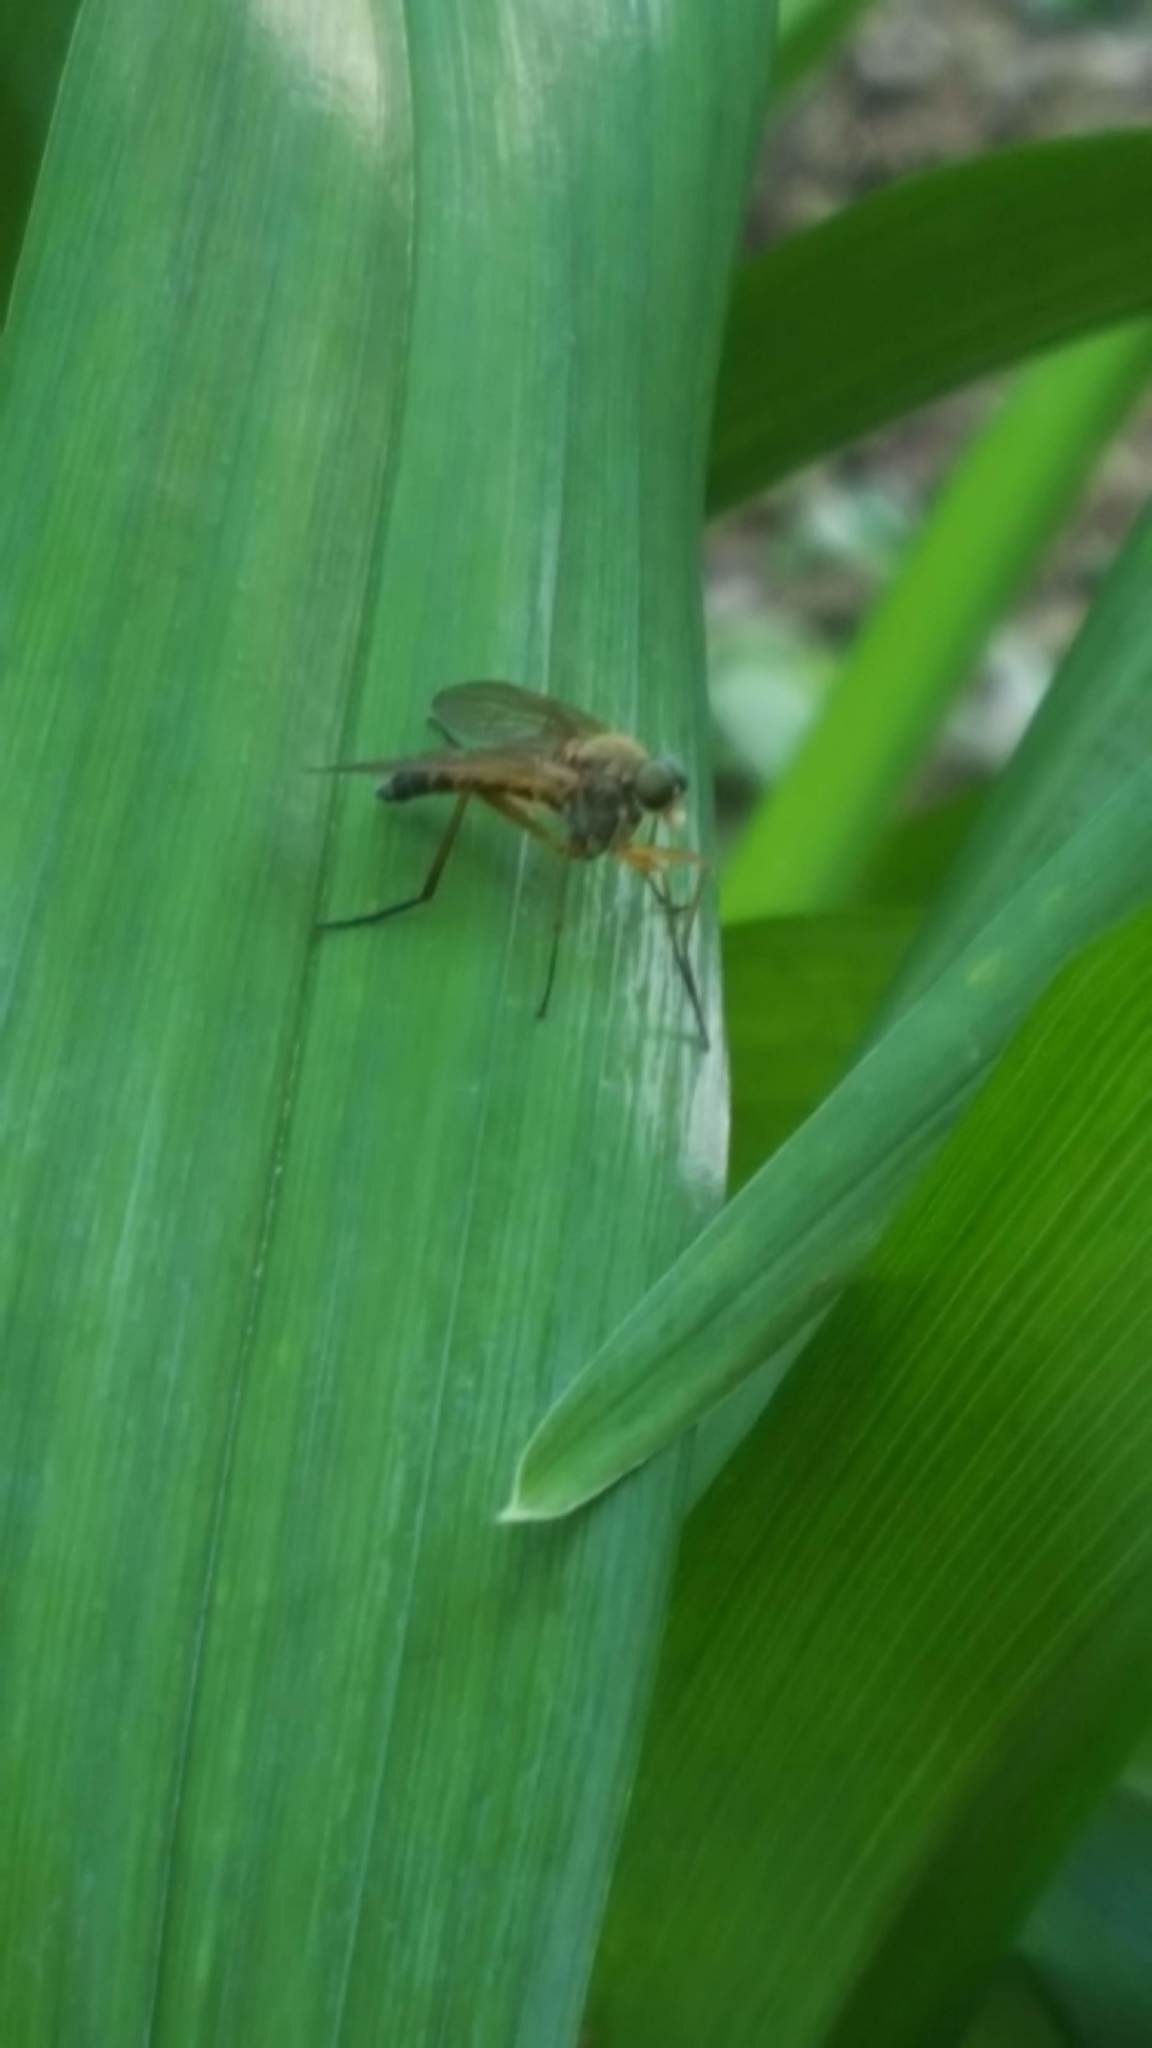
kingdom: Animalia
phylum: Arthropoda
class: Insecta
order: Diptera
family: Rhagionidae
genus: Rhagio
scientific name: Rhagio tringaria
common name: Marsh snipefly
